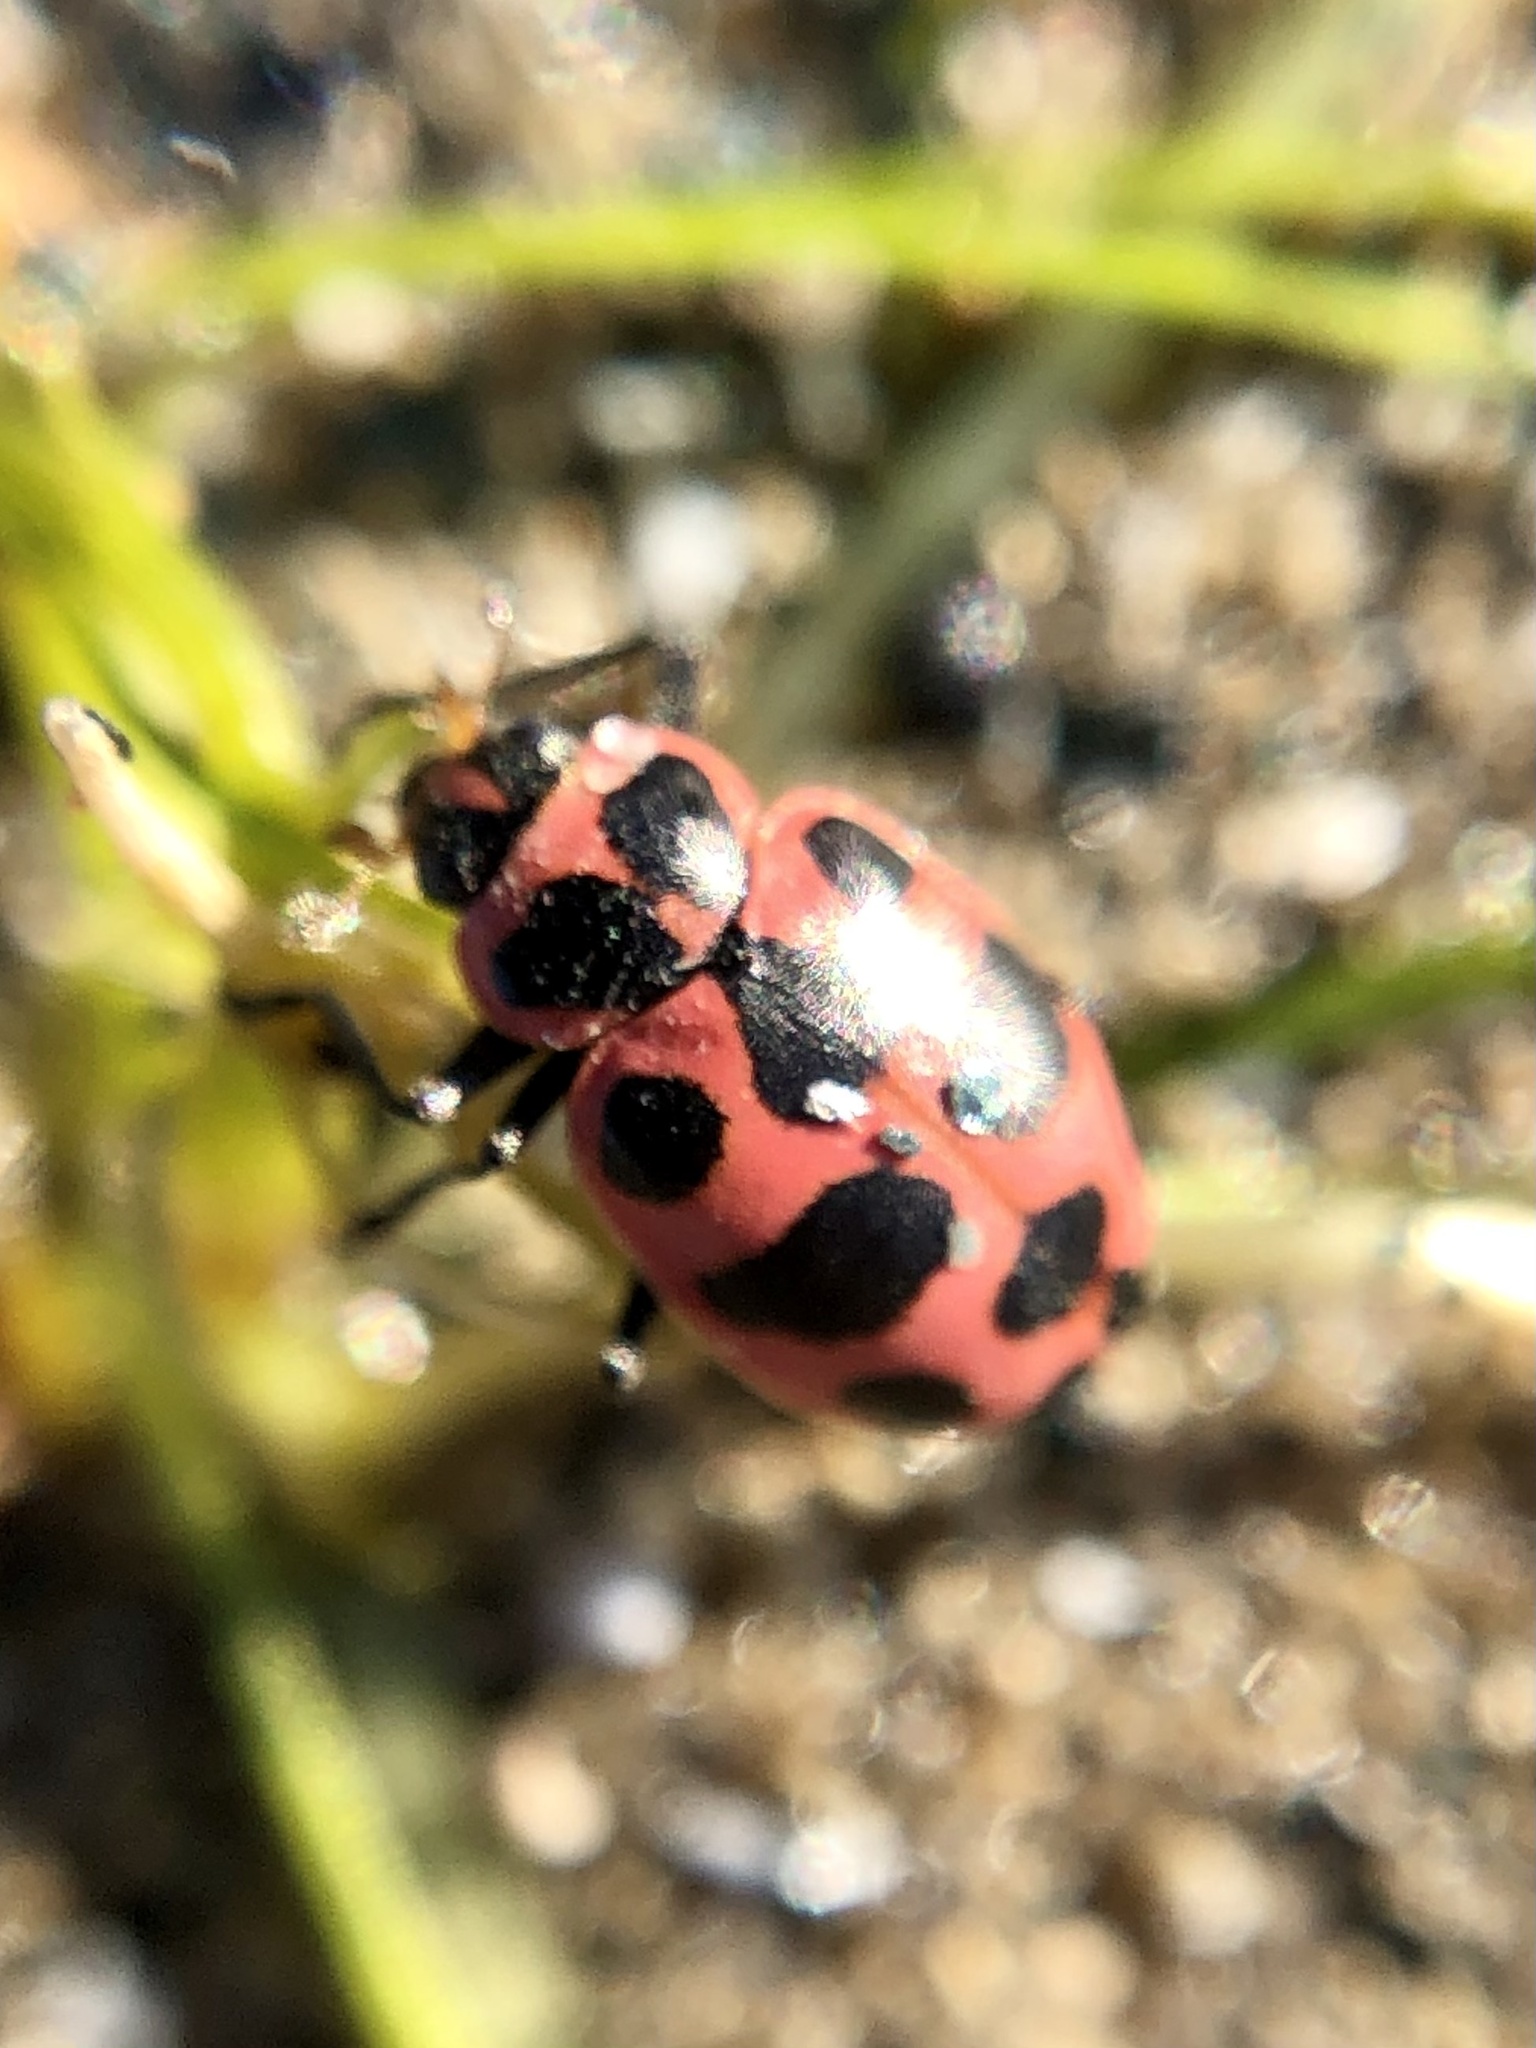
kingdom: Animalia
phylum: Arthropoda
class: Insecta
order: Coleoptera
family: Coccinellidae
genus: Coleomegilla
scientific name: Coleomegilla maculata
